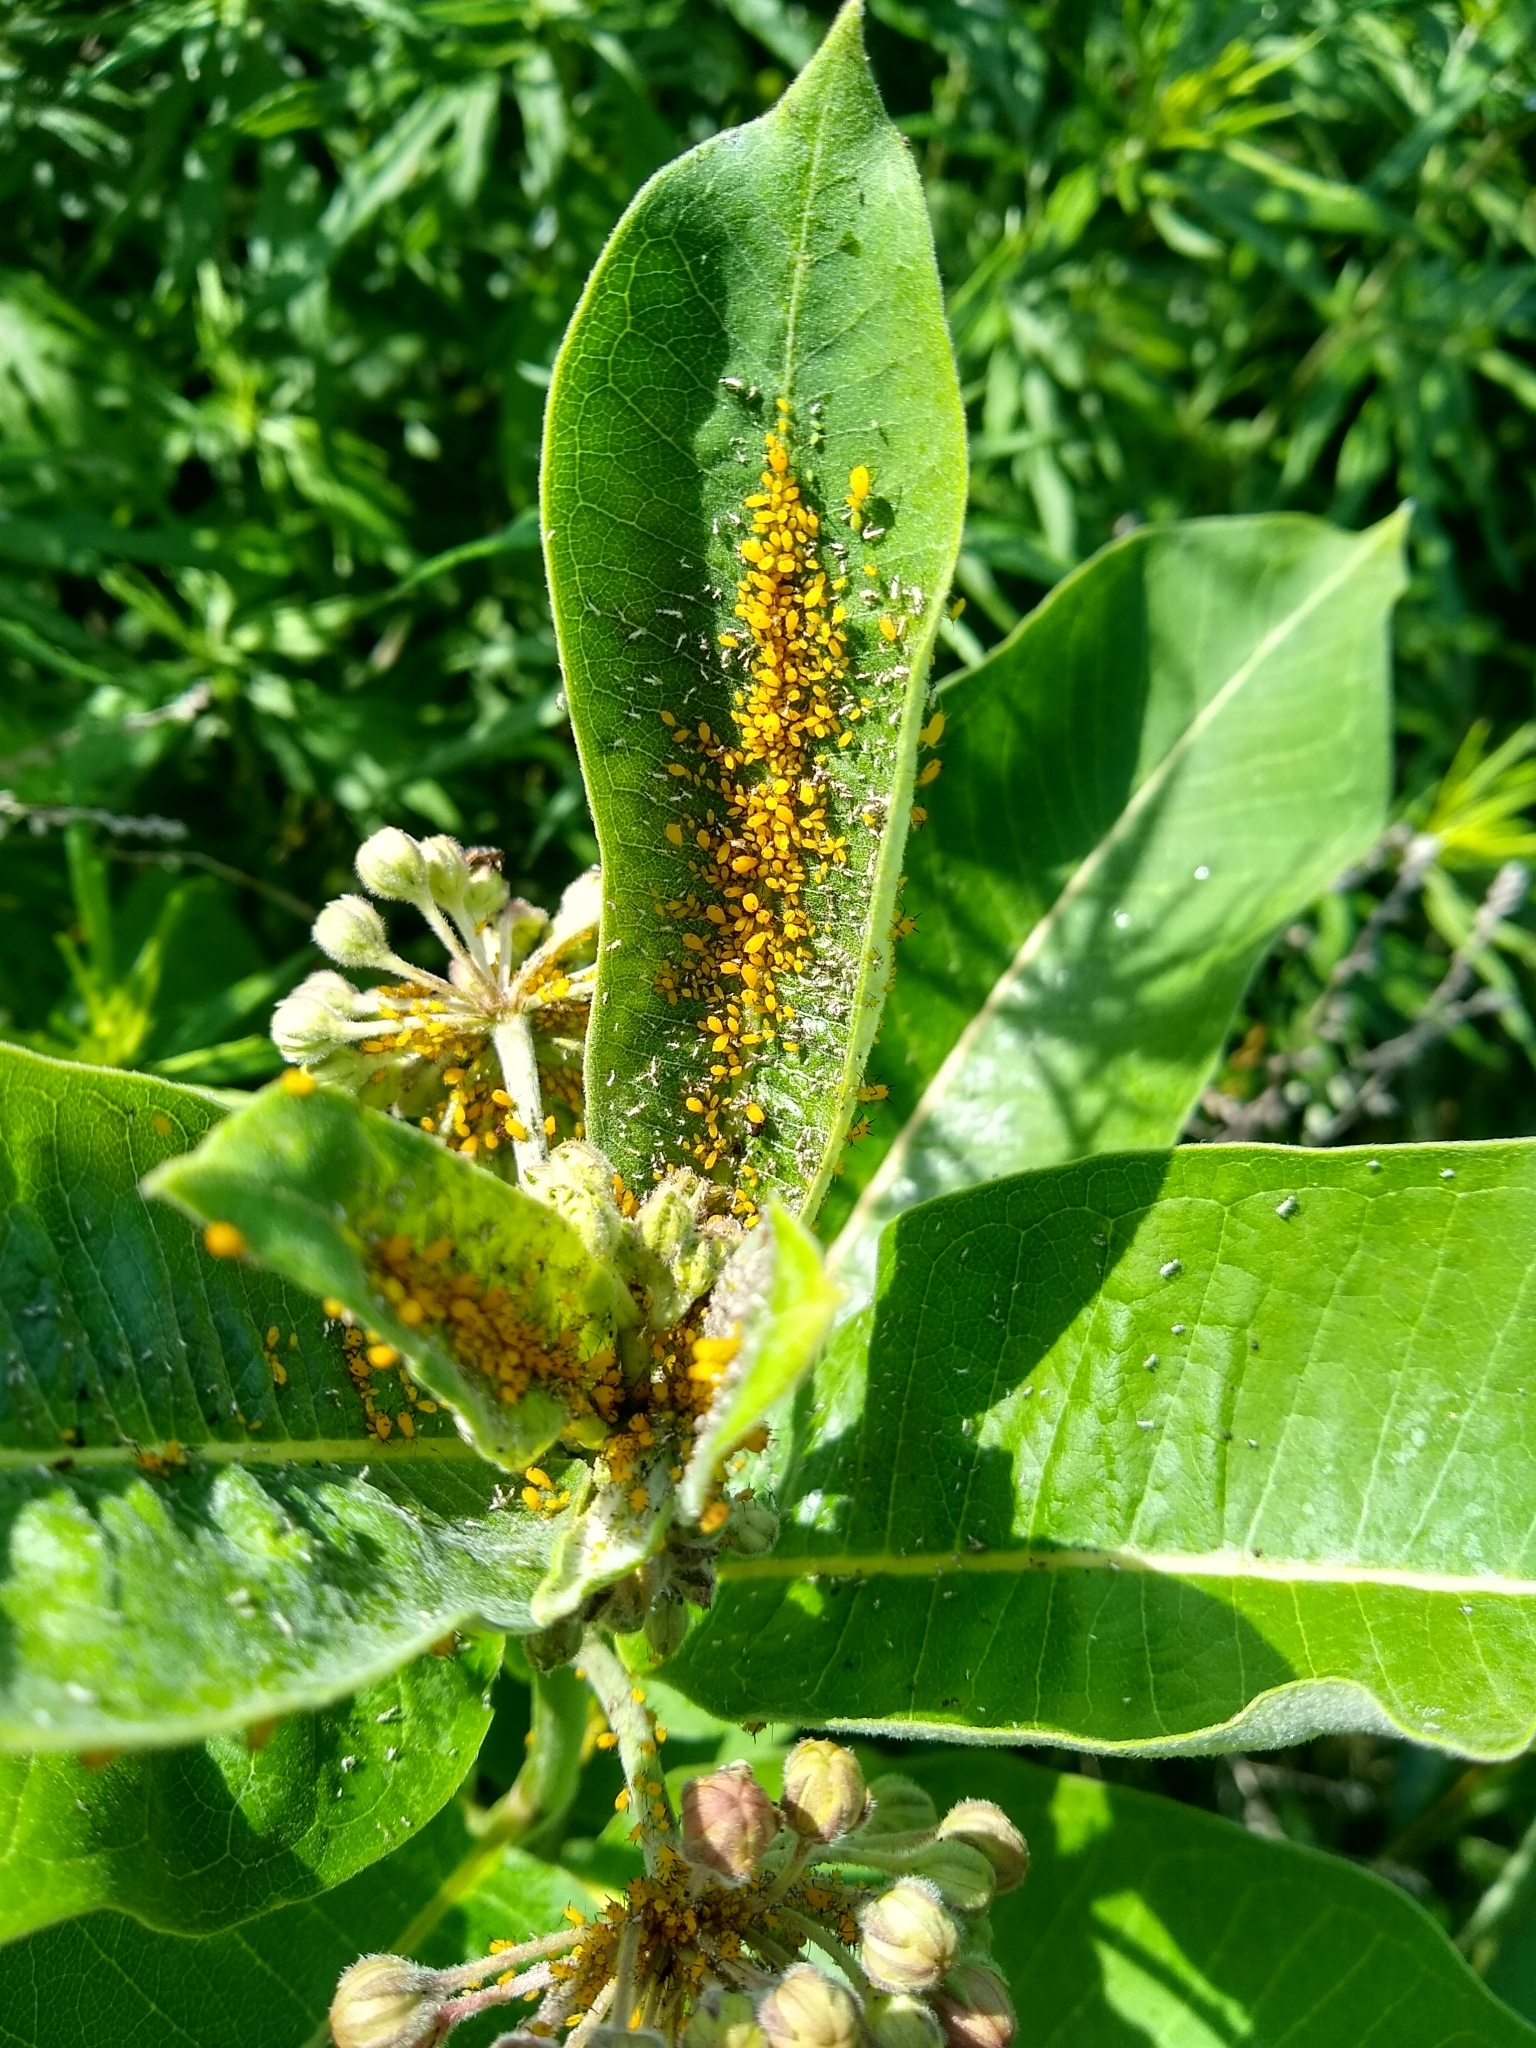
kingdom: Animalia
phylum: Arthropoda
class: Insecta
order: Hemiptera
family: Aphididae
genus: Aphis
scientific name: Aphis nerii
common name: Oleander aphid
